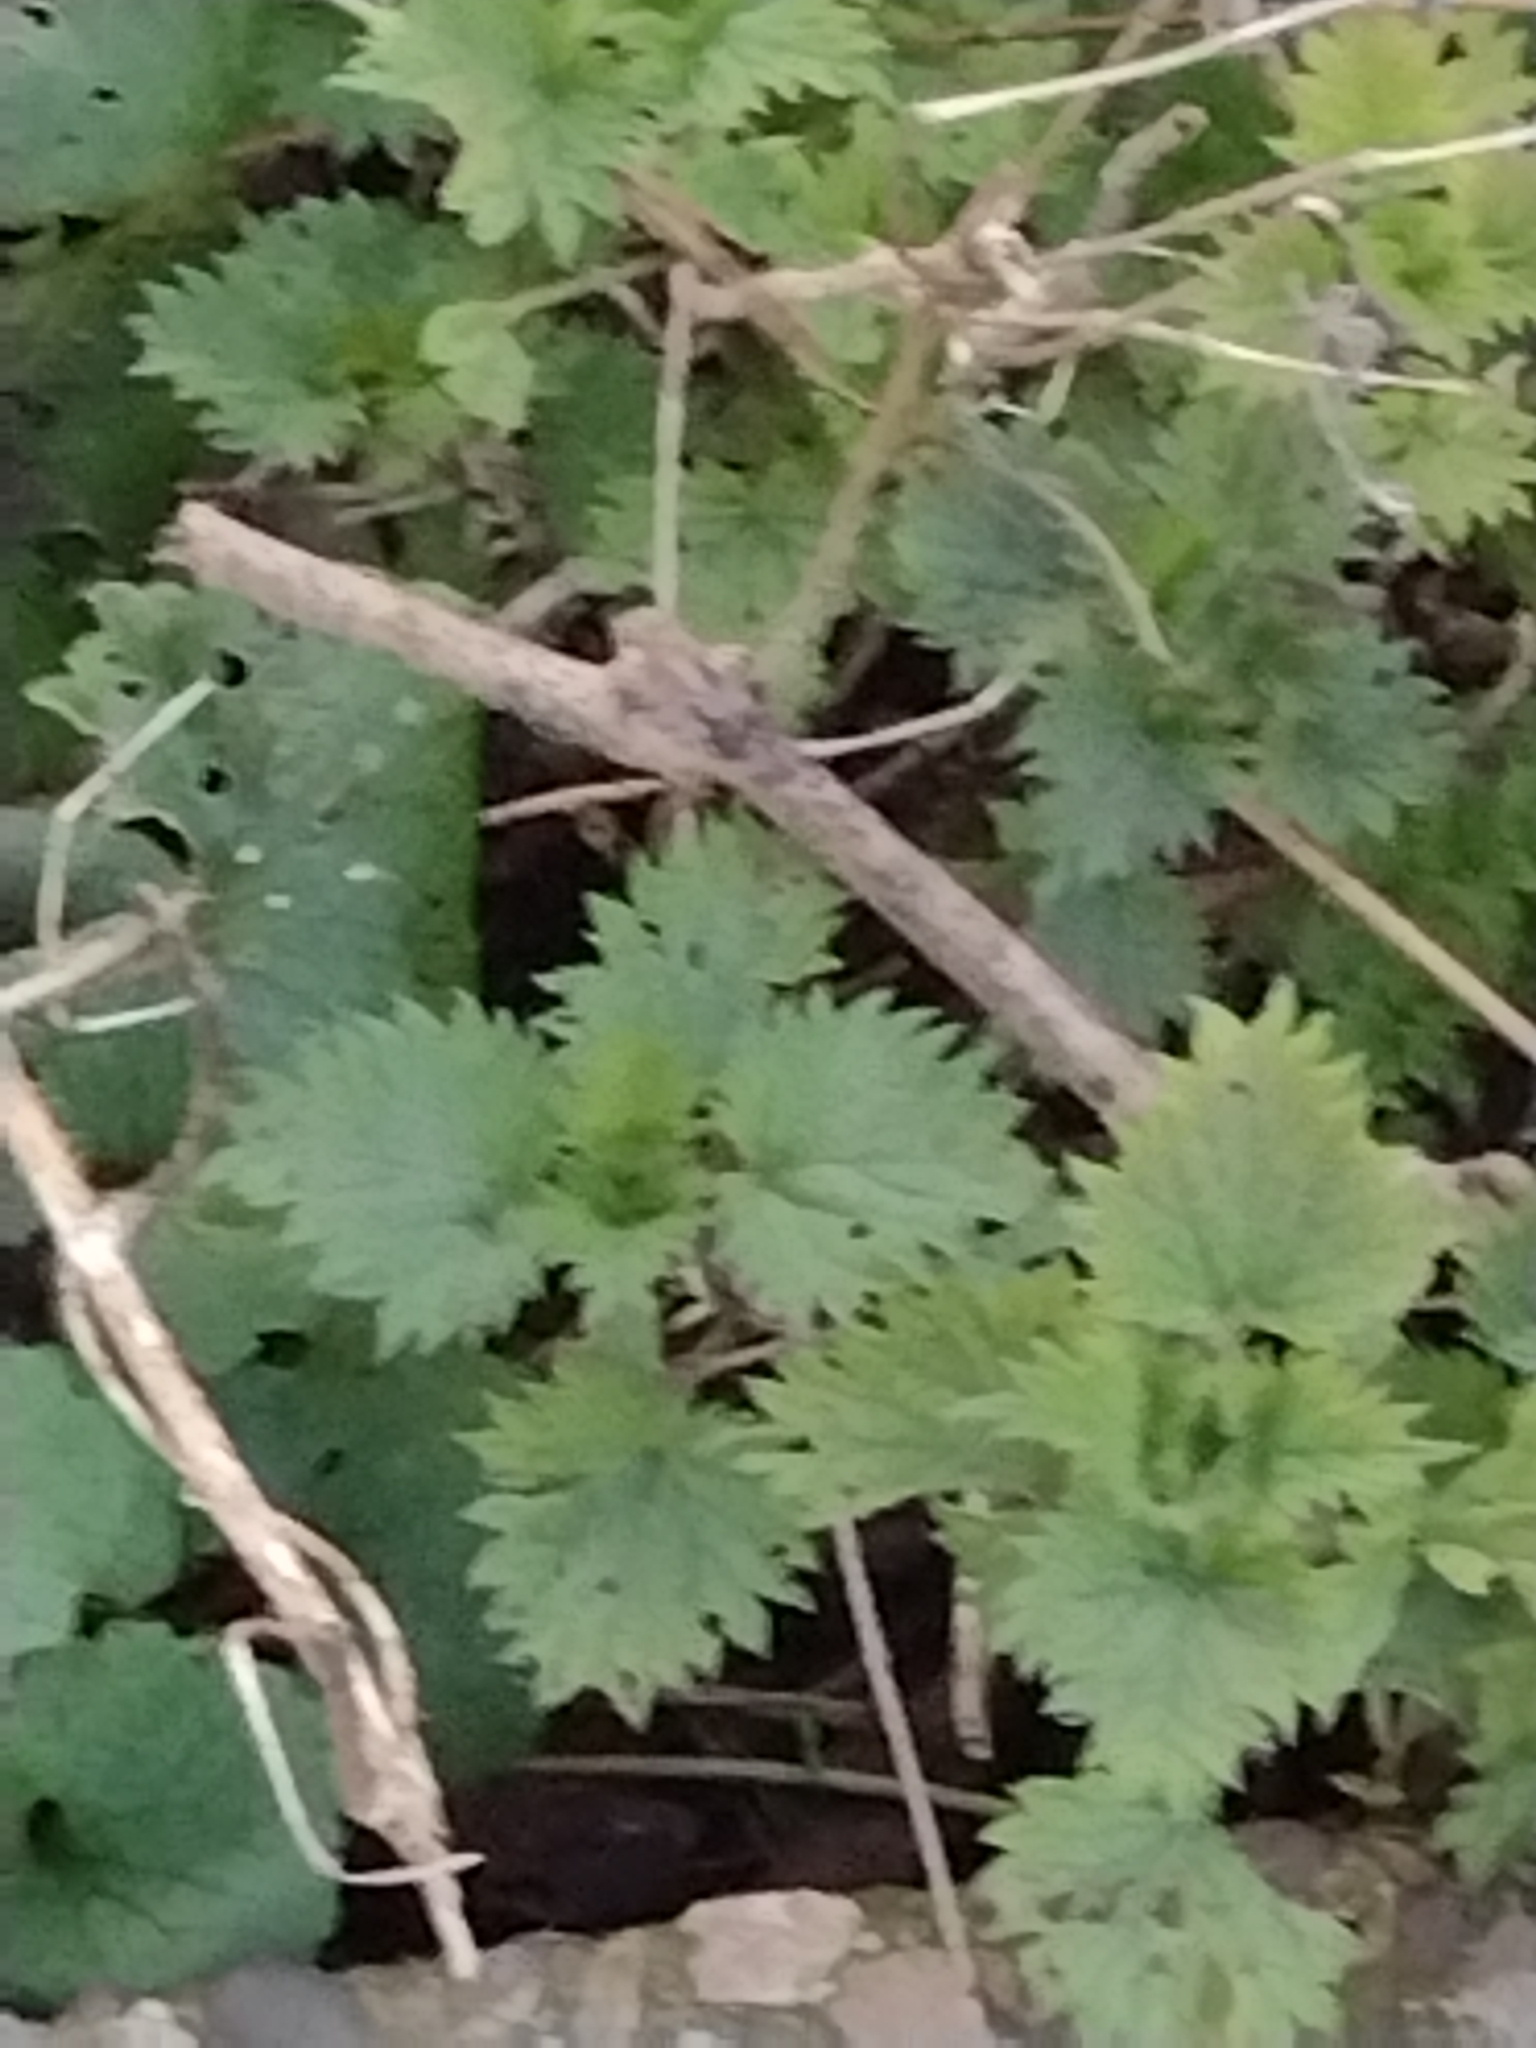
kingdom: Plantae
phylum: Tracheophyta
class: Magnoliopsida
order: Rosales
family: Urticaceae
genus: Urtica
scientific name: Urtica dioica
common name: Common nettle
